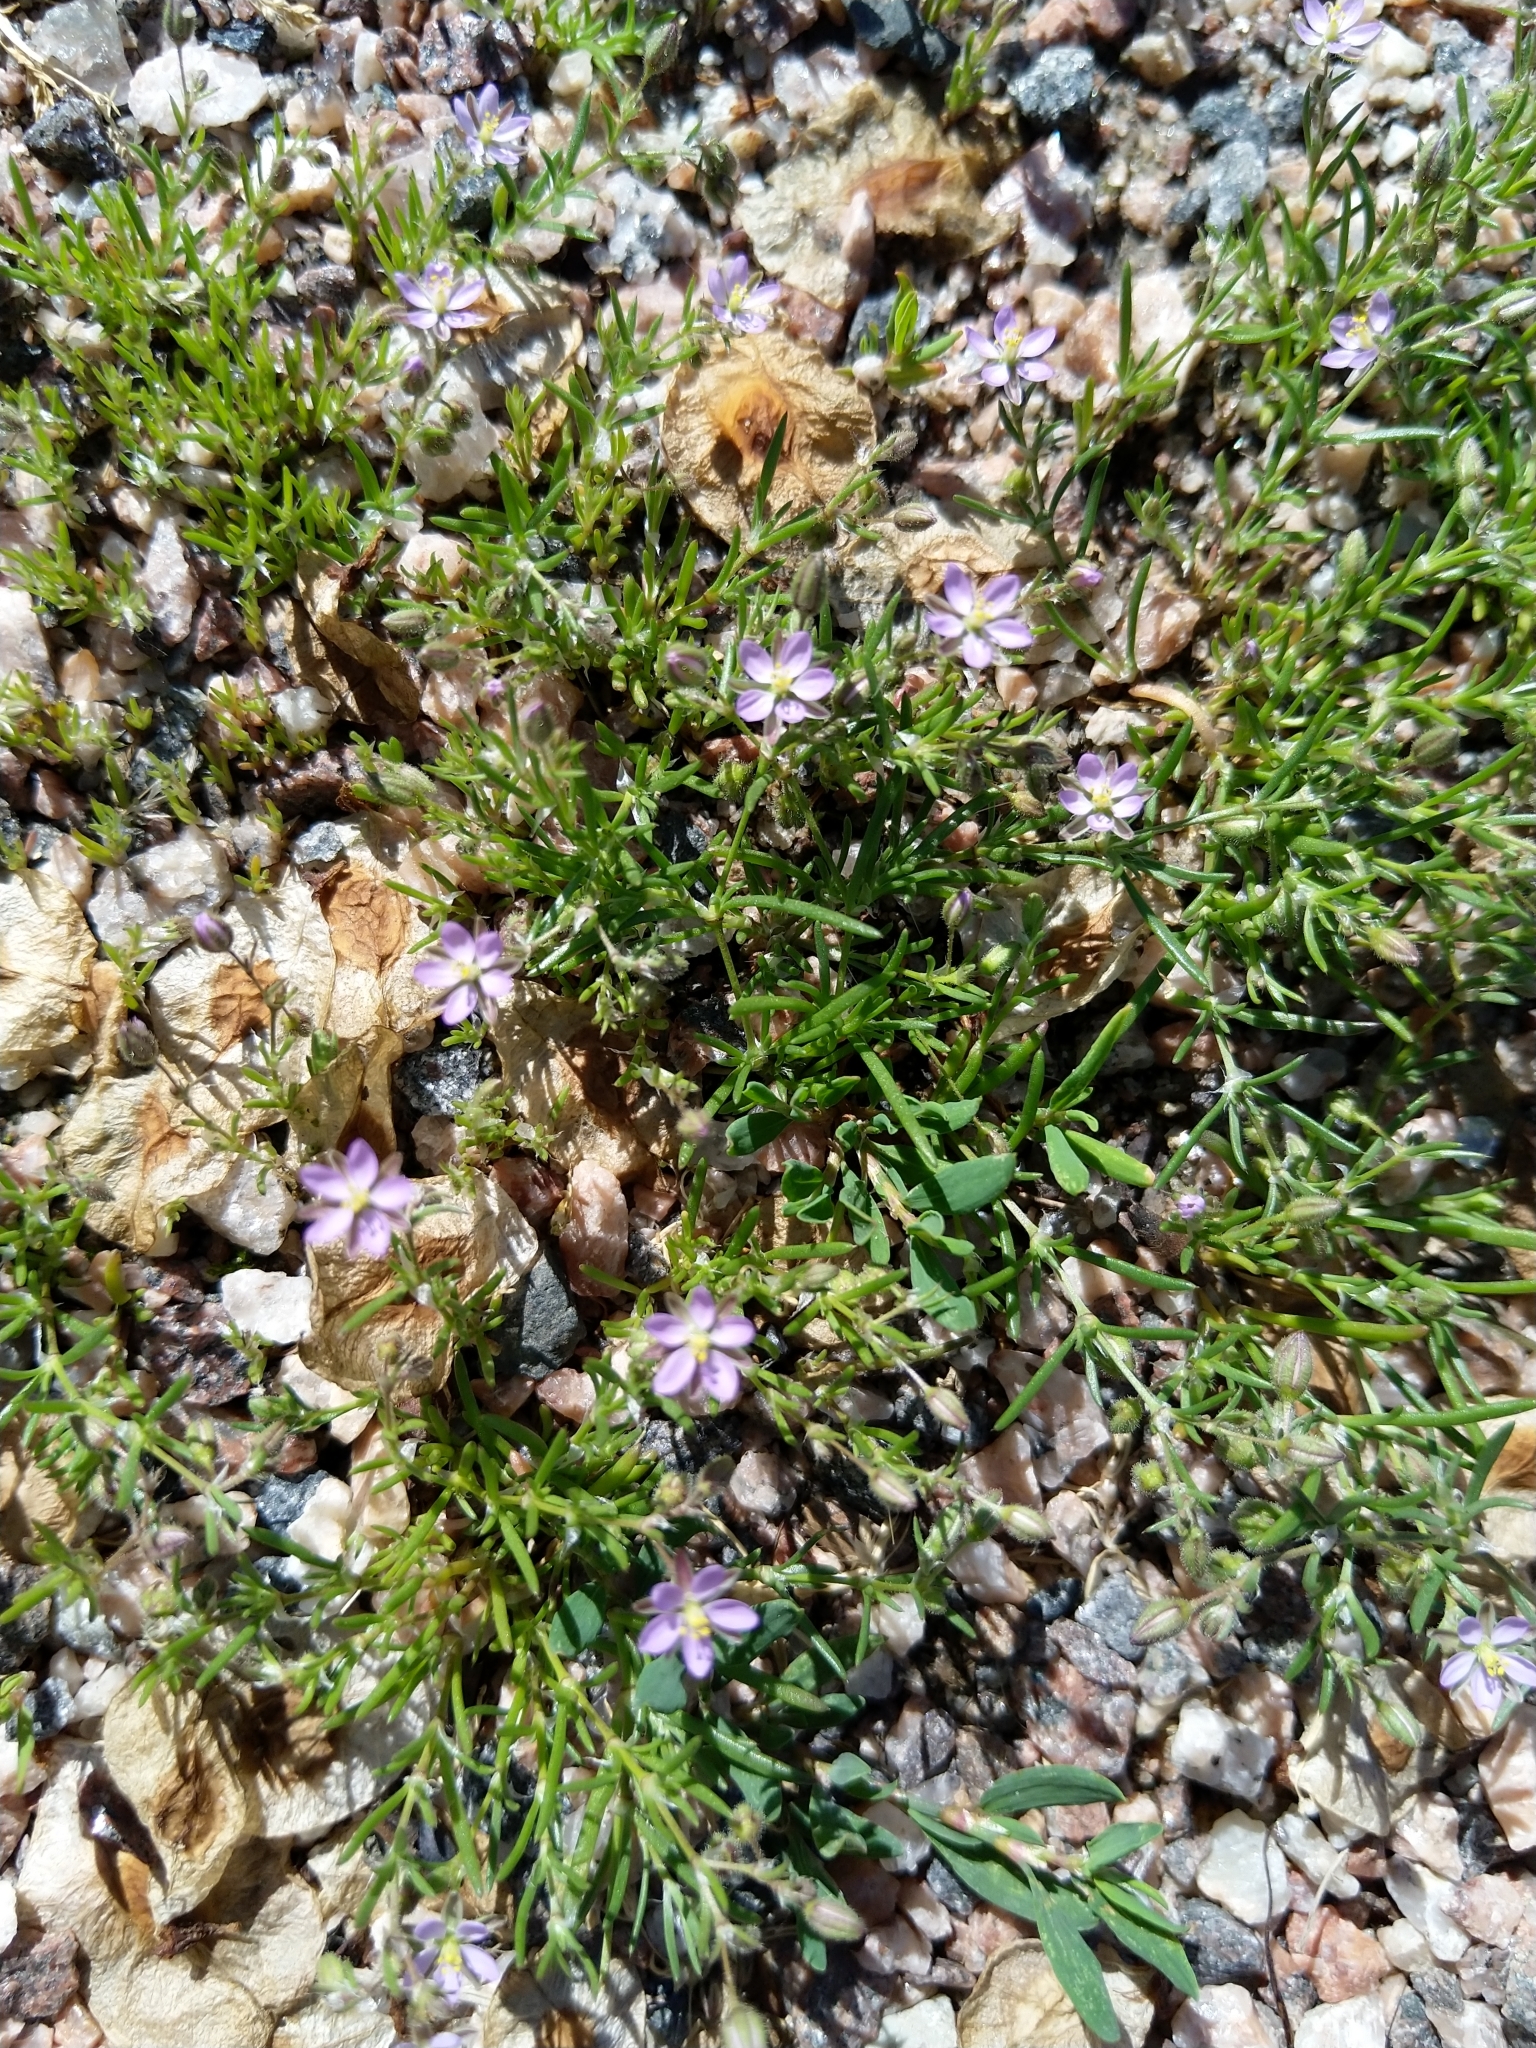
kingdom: Plantae
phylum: Tracheophyta
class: Magnoliopsida
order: Caryophyllales
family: Caryophyllaceae
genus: Spergularia
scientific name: Spergularia rubra
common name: Red sand-spurrey
